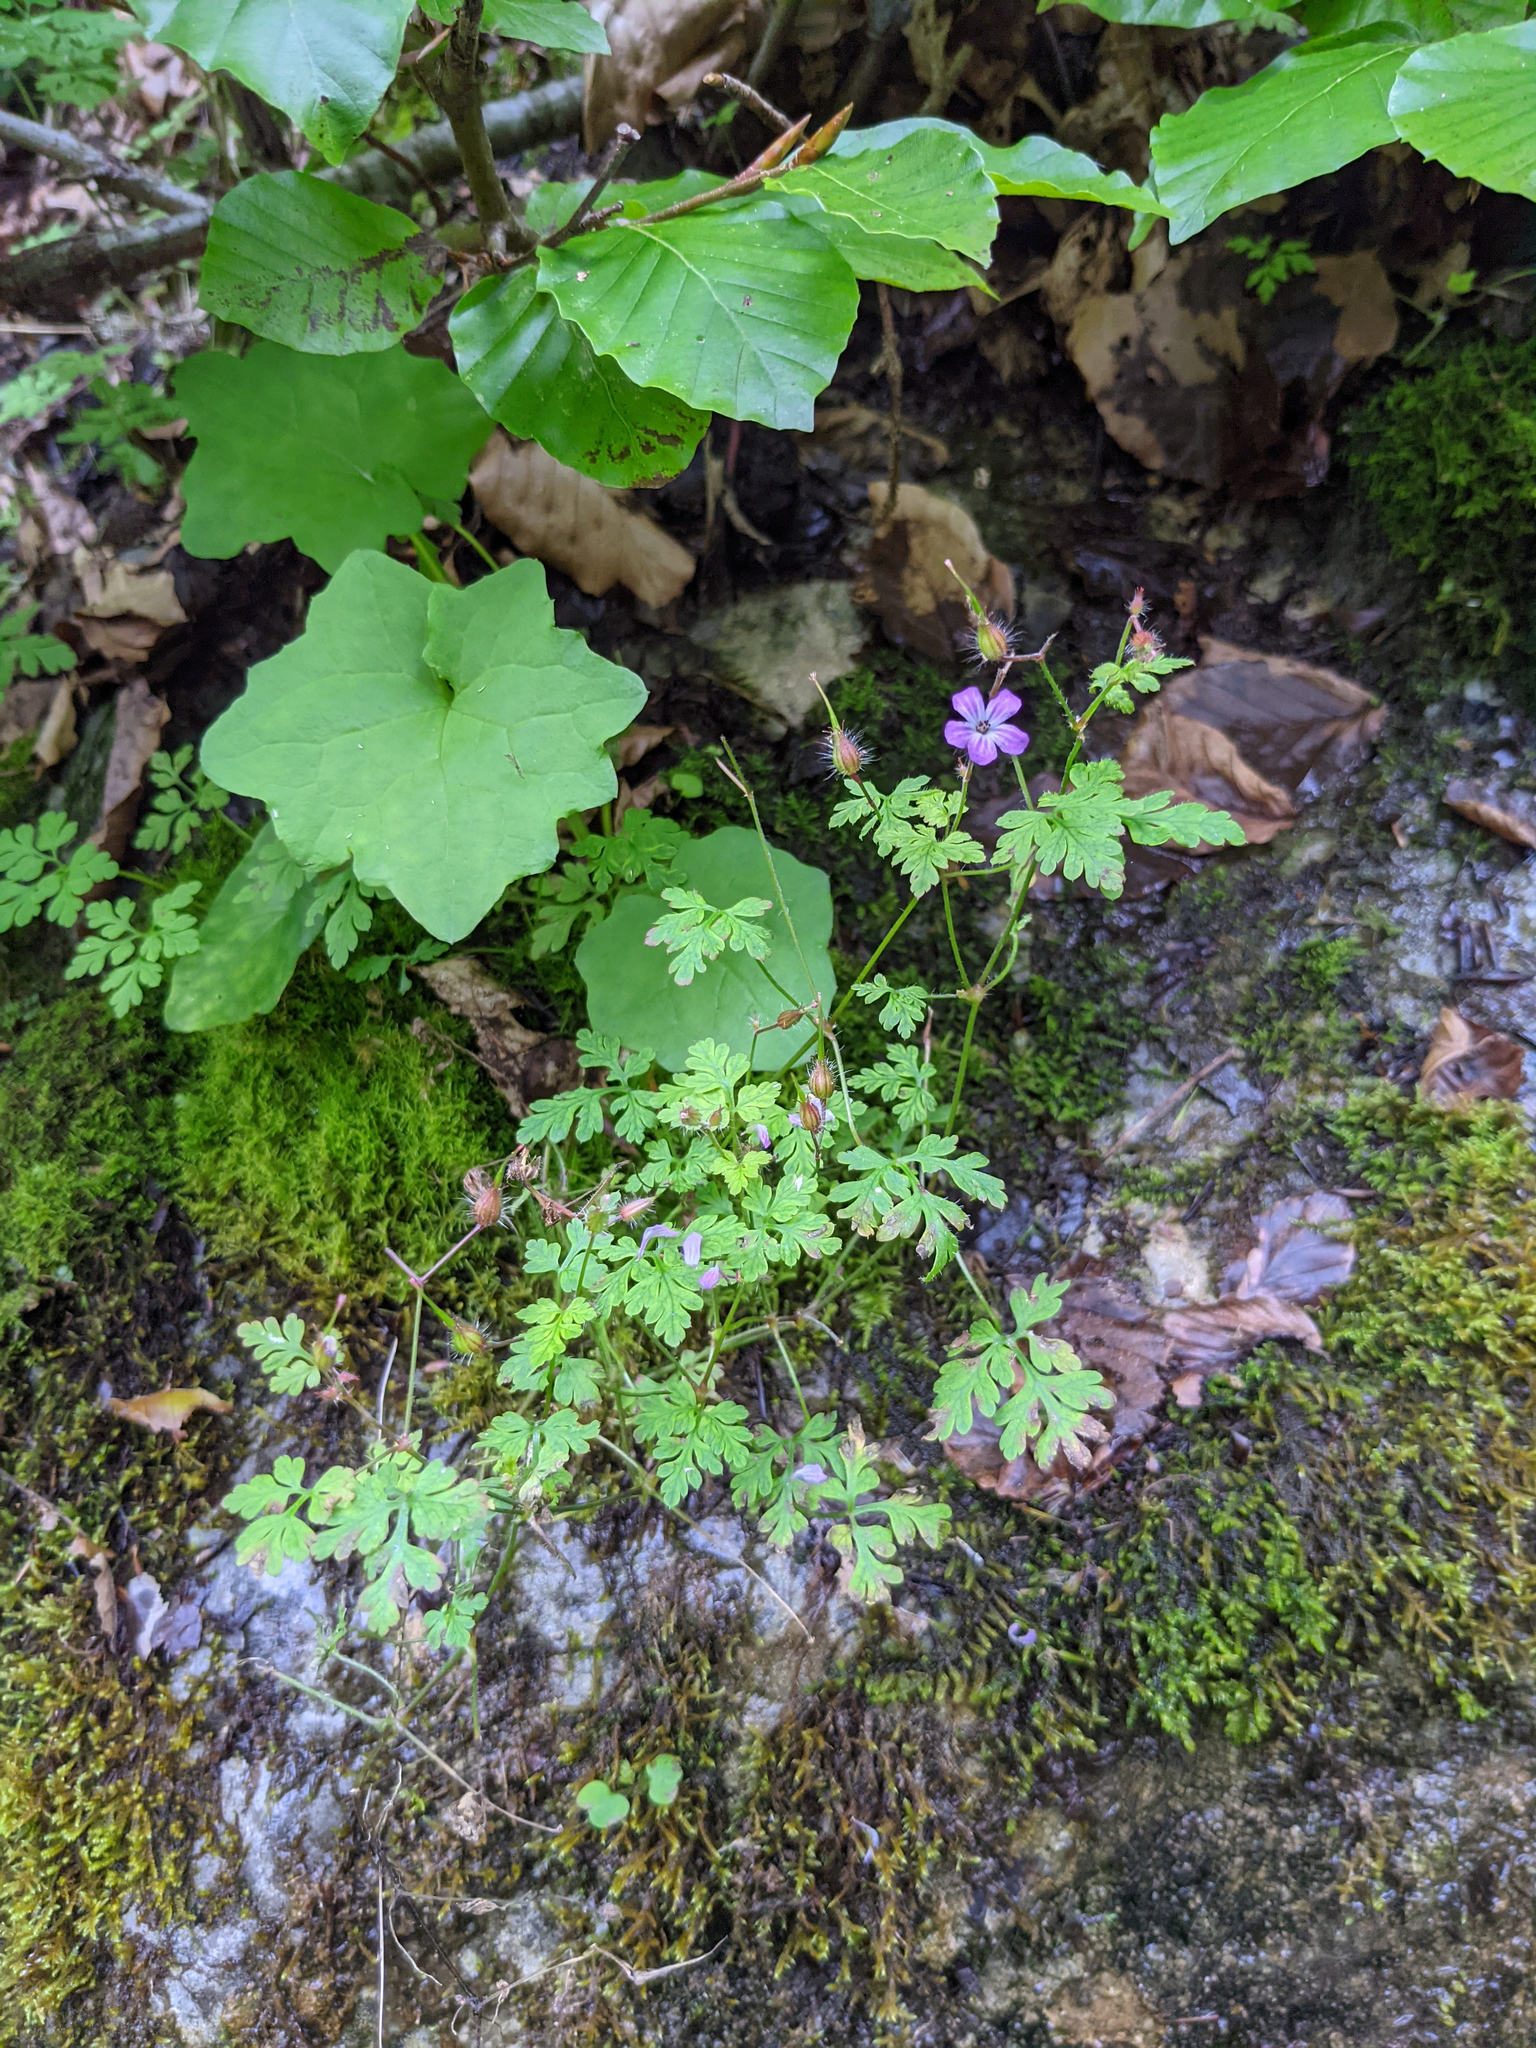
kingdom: Plantae
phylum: Tracheophyta
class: Magnoliopsida
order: Geraniales
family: Geraniaceae
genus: Geranium
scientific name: Geranium robertianum
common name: Herb-robert
